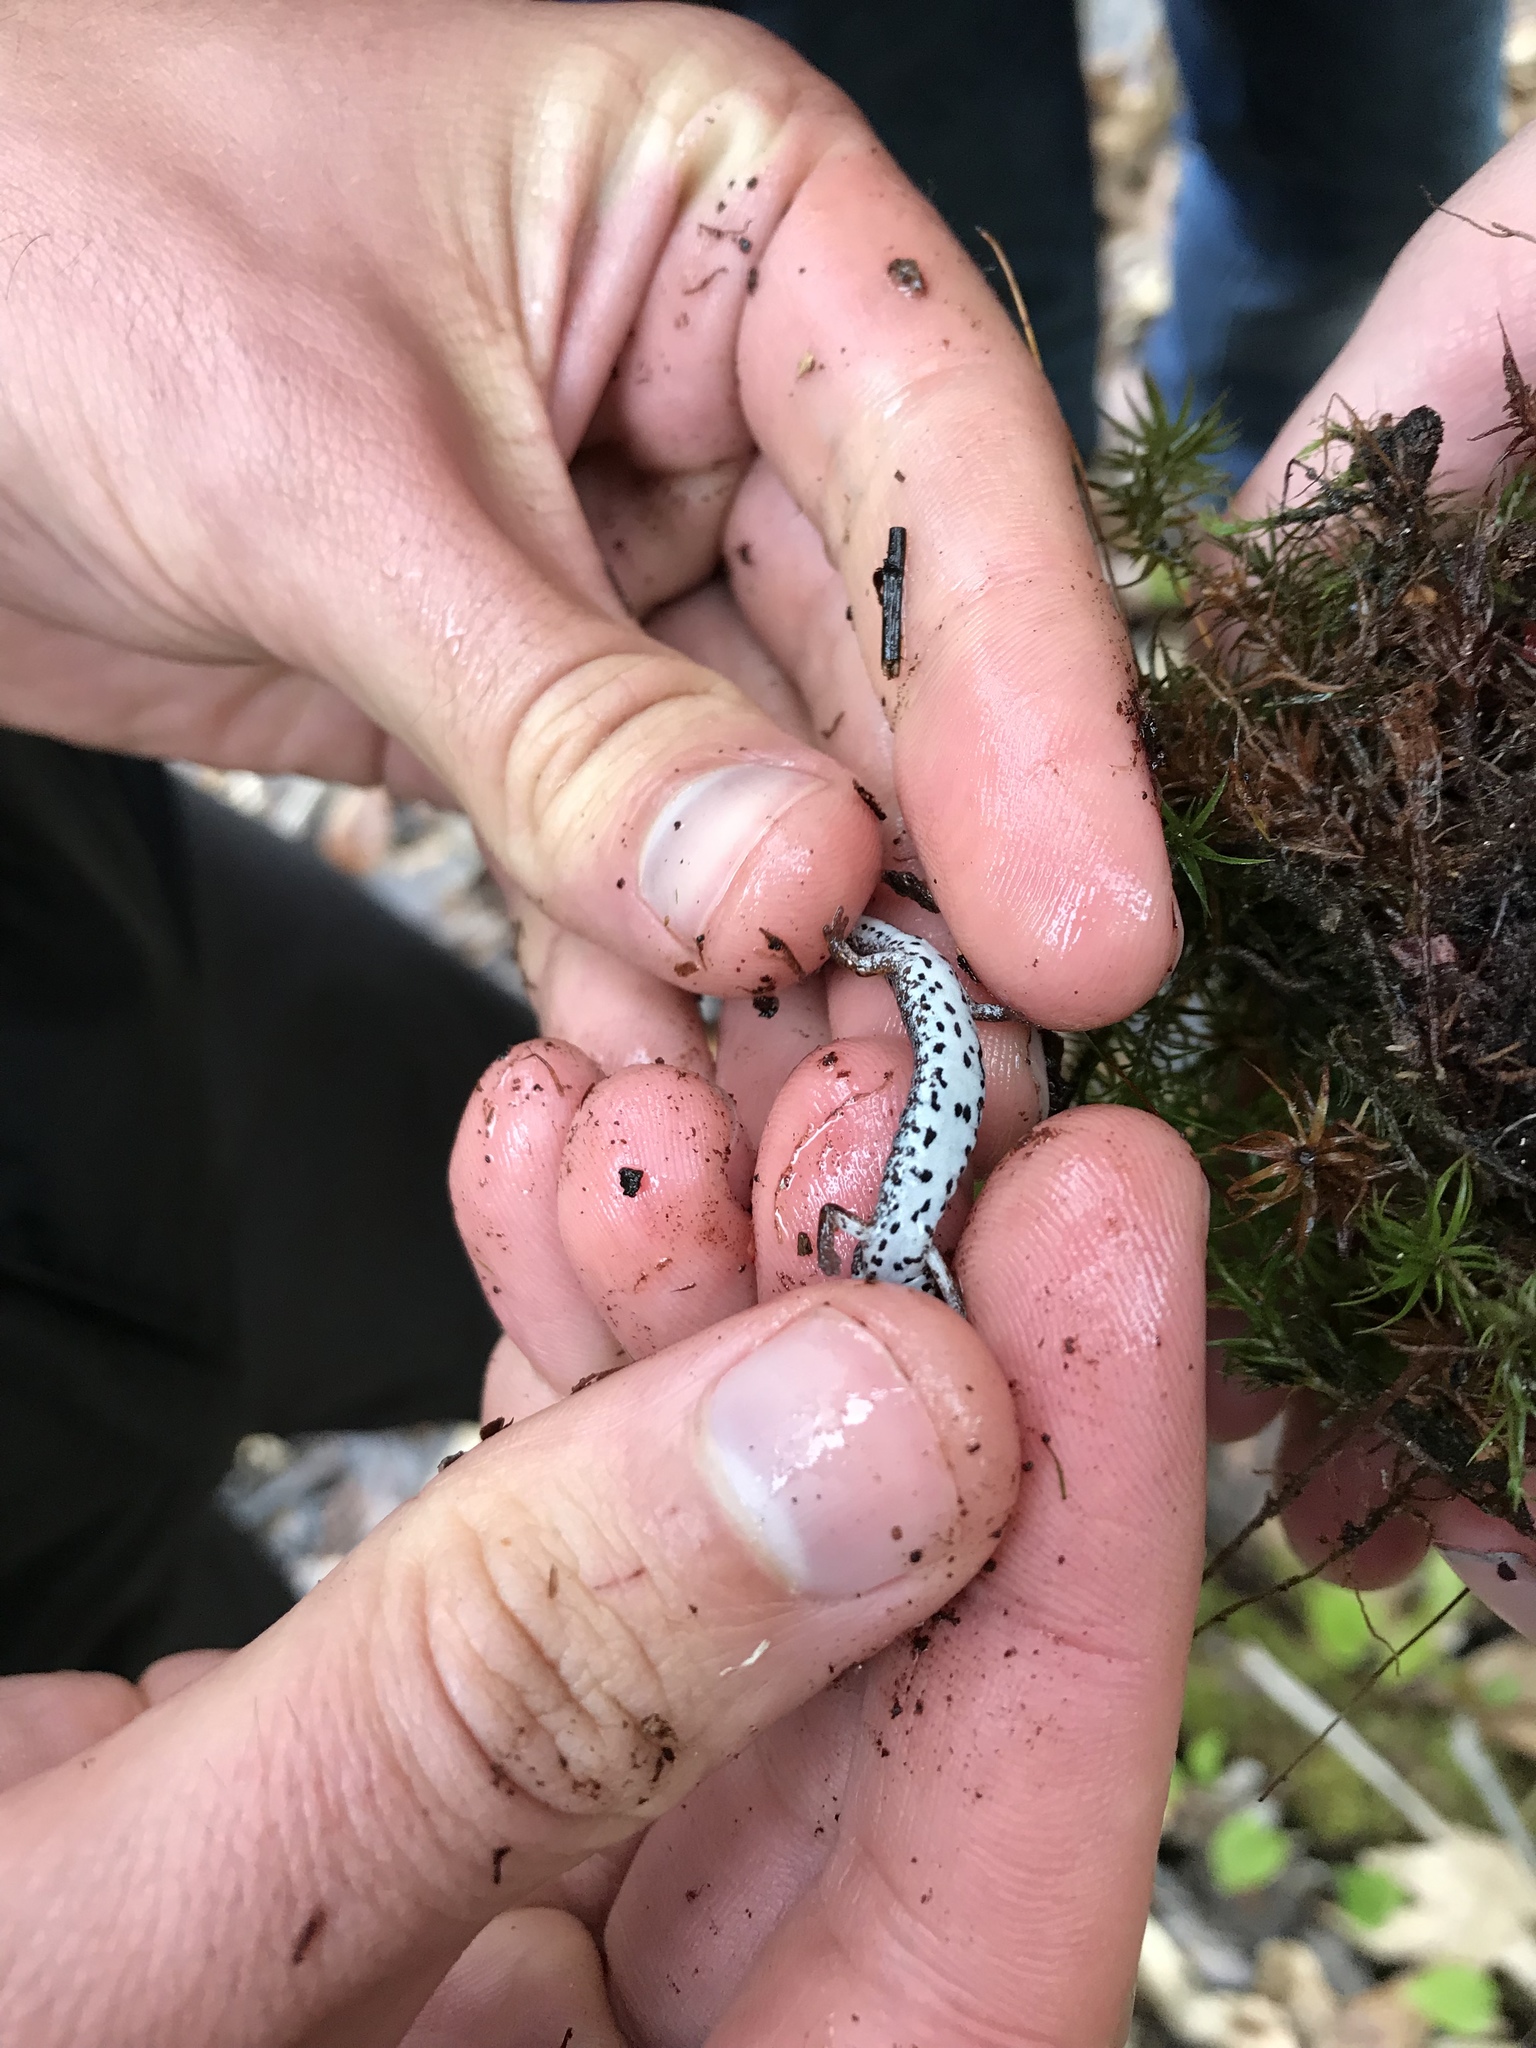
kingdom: Animalia
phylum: Chordata
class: Amphibia
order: Caudata
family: Plethodontidae
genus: Hemidactylium
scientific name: Hemidactylium scutatum
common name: Four-toed salamander
